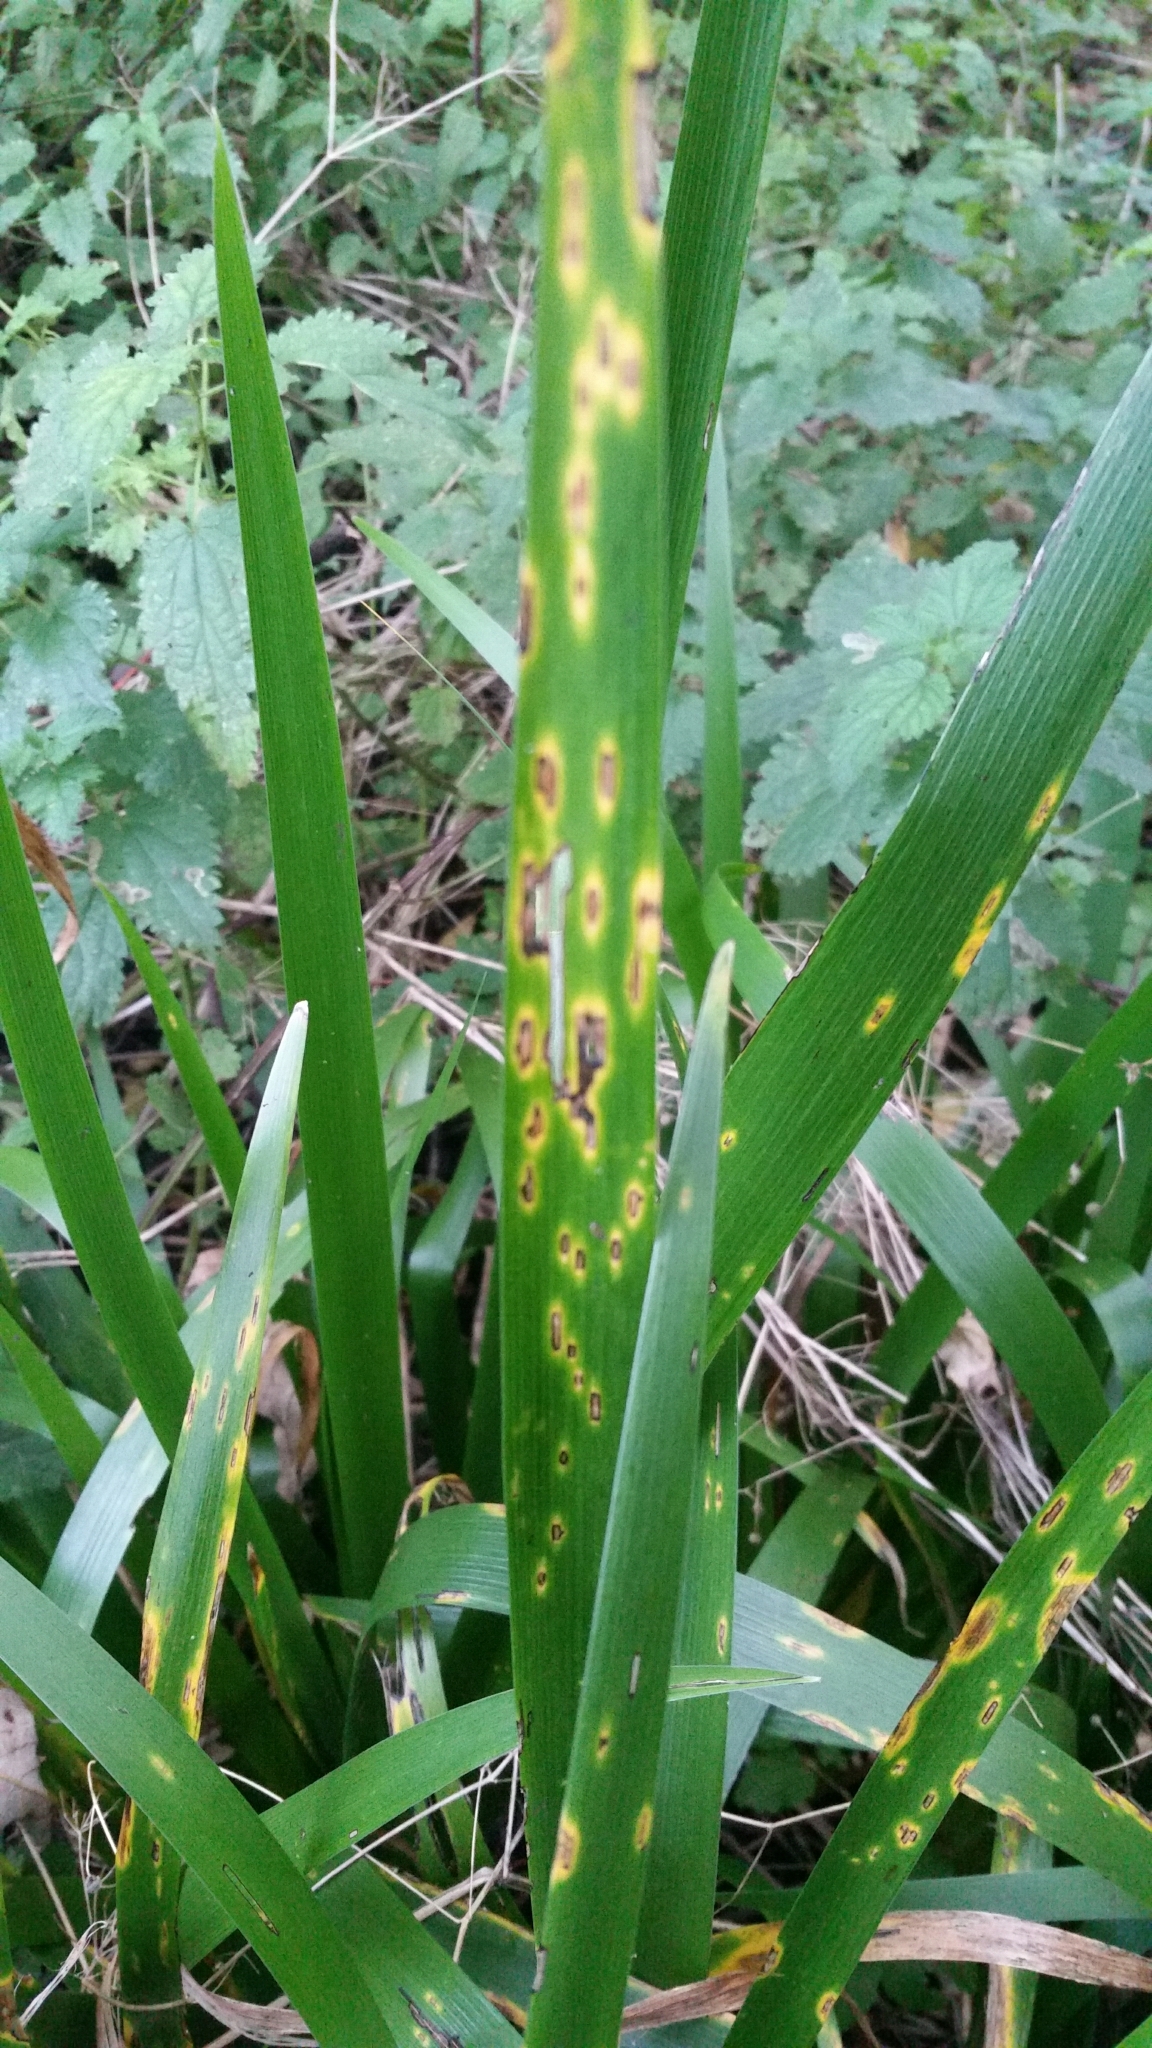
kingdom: Fungi
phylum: Basidiomycota
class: Pucciniomycetes
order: Pucciniales
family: Pucciniaceae
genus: Puccinia
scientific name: Puccinia iridis
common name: Iris rust
